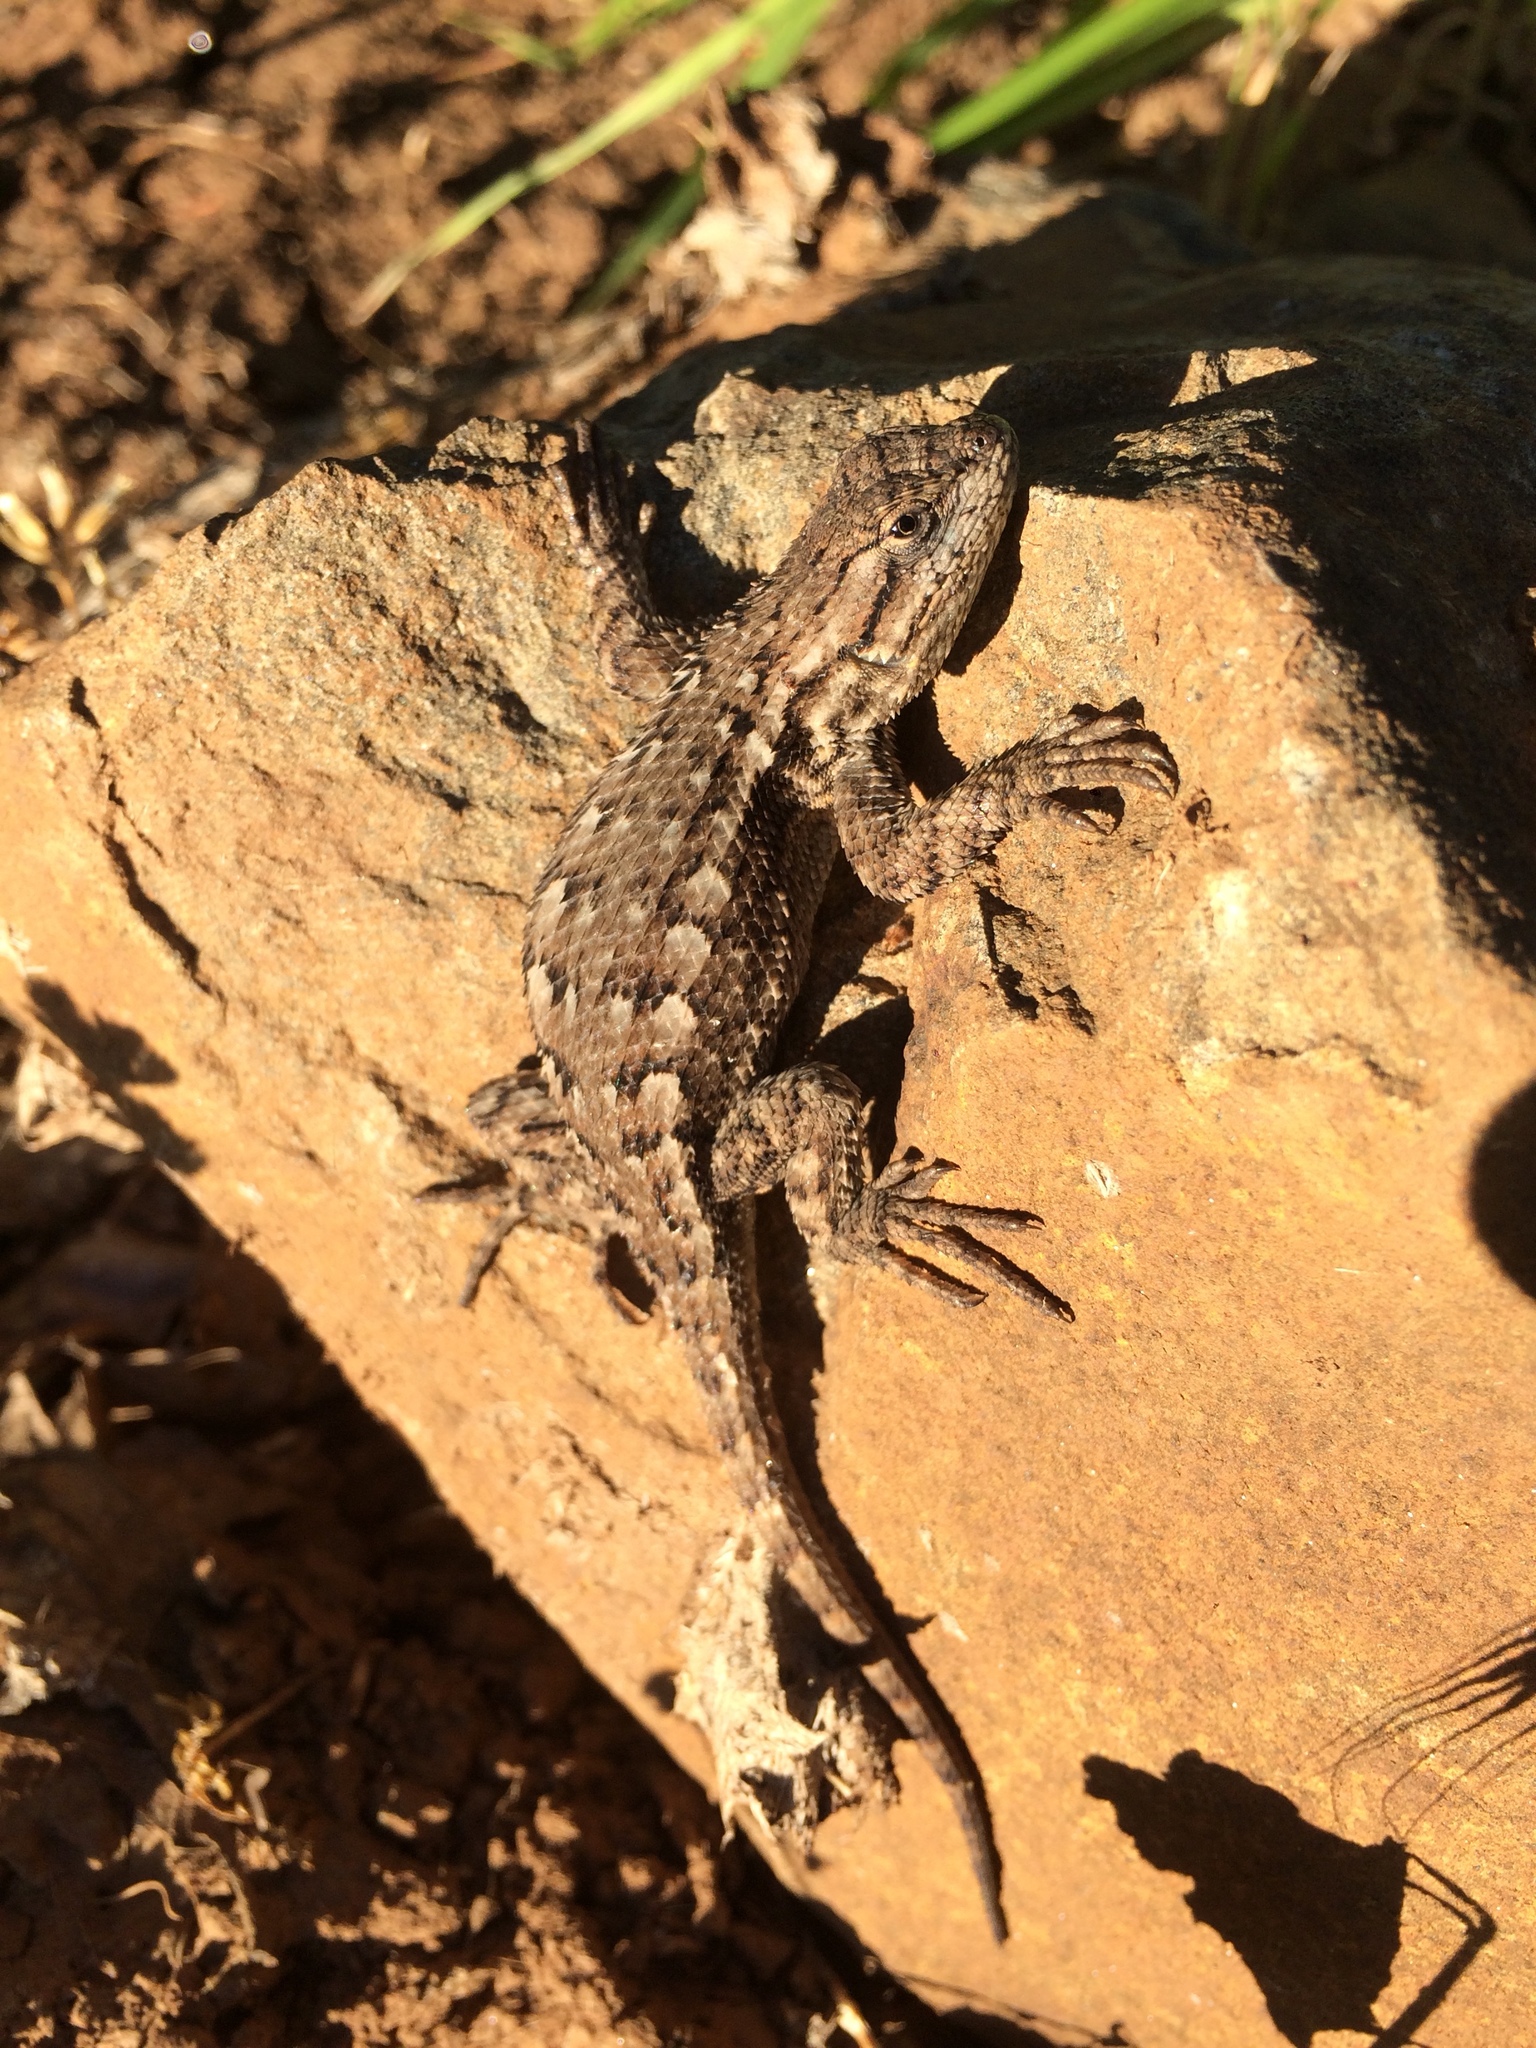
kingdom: Animalia
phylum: Chordata
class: Squamata
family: Phrynosomatidae
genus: Sceloporus
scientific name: Sceloporus occidentalis
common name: Western fence lizard
